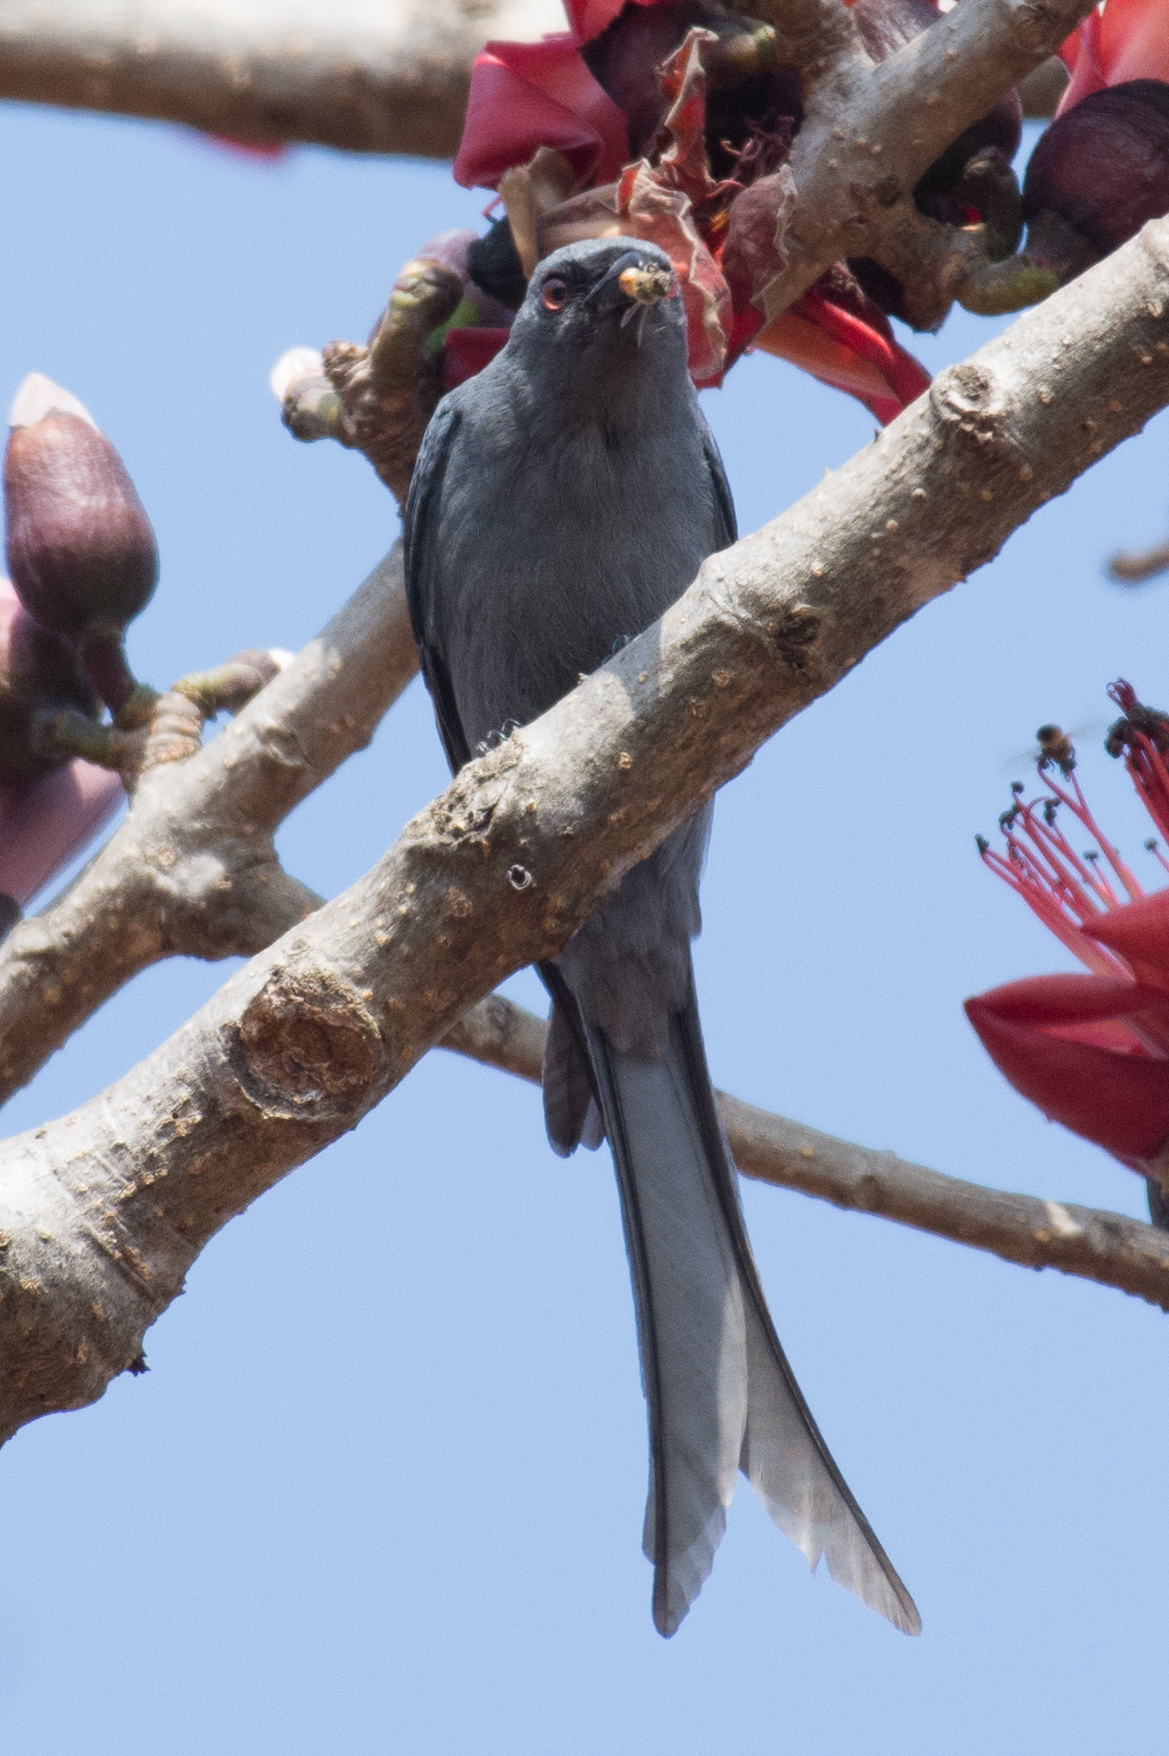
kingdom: Animalia
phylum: Chordata
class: Aves
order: Passeriformes
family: Dicruridae
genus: Dicrurus
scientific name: Dicrurus leucophaeus
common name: Ashy drongo
